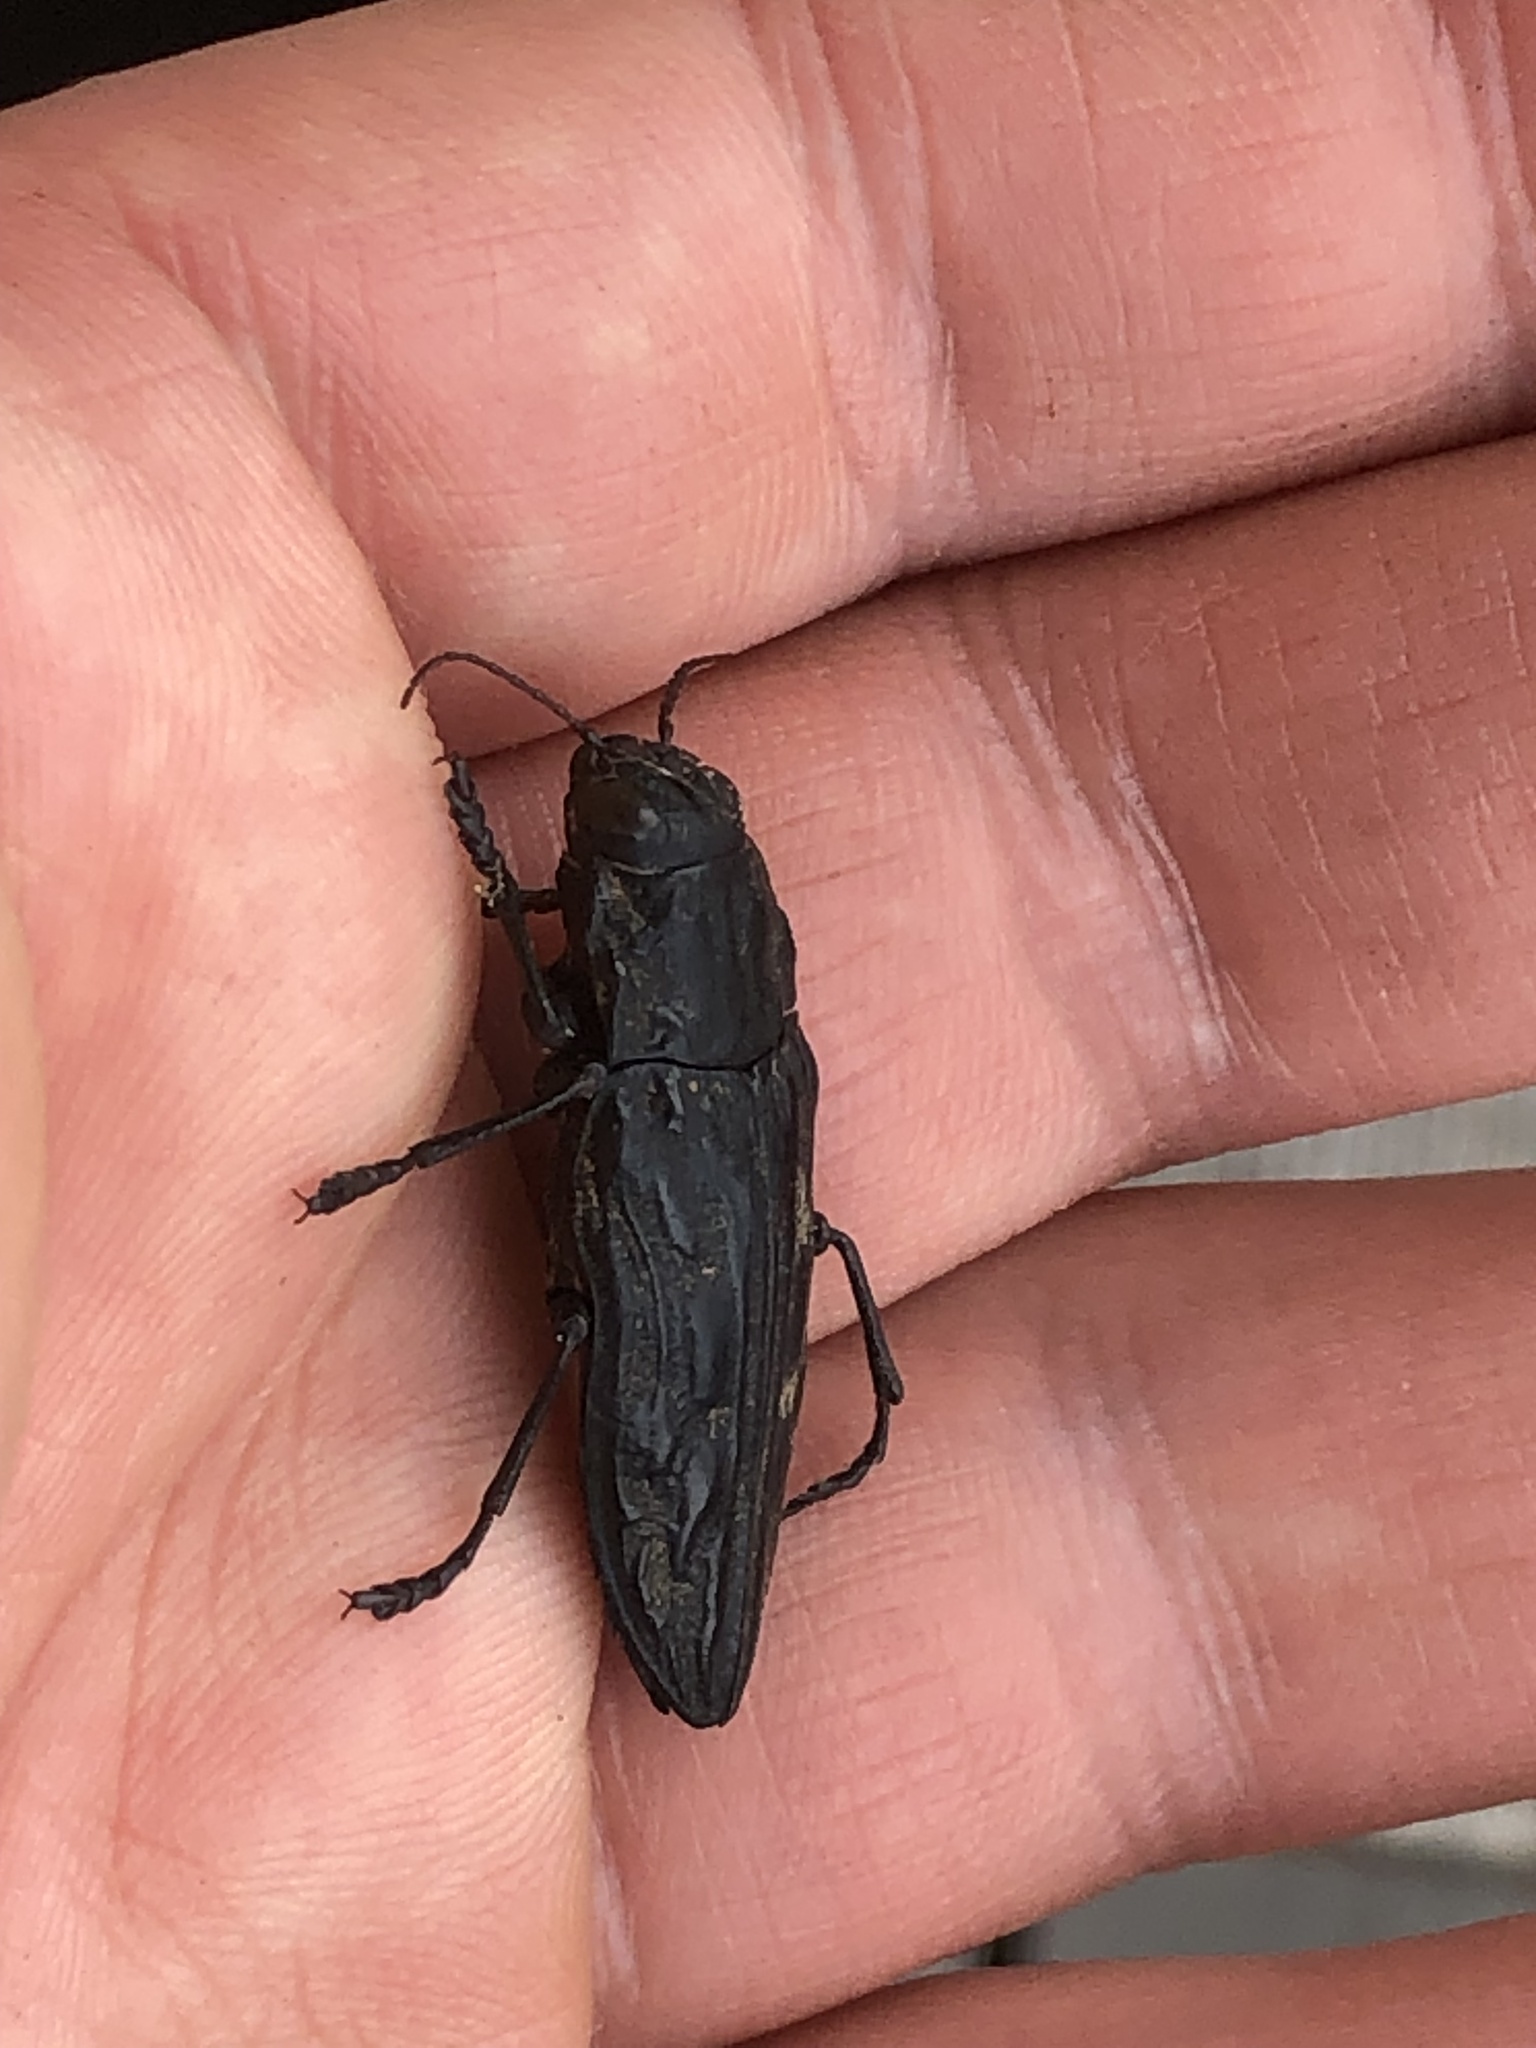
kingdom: Animalia
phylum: Arthropoda
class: Insecta
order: Coleoptera
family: Buprestidae
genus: Chalcophora
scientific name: Chalcophora angulicollis
